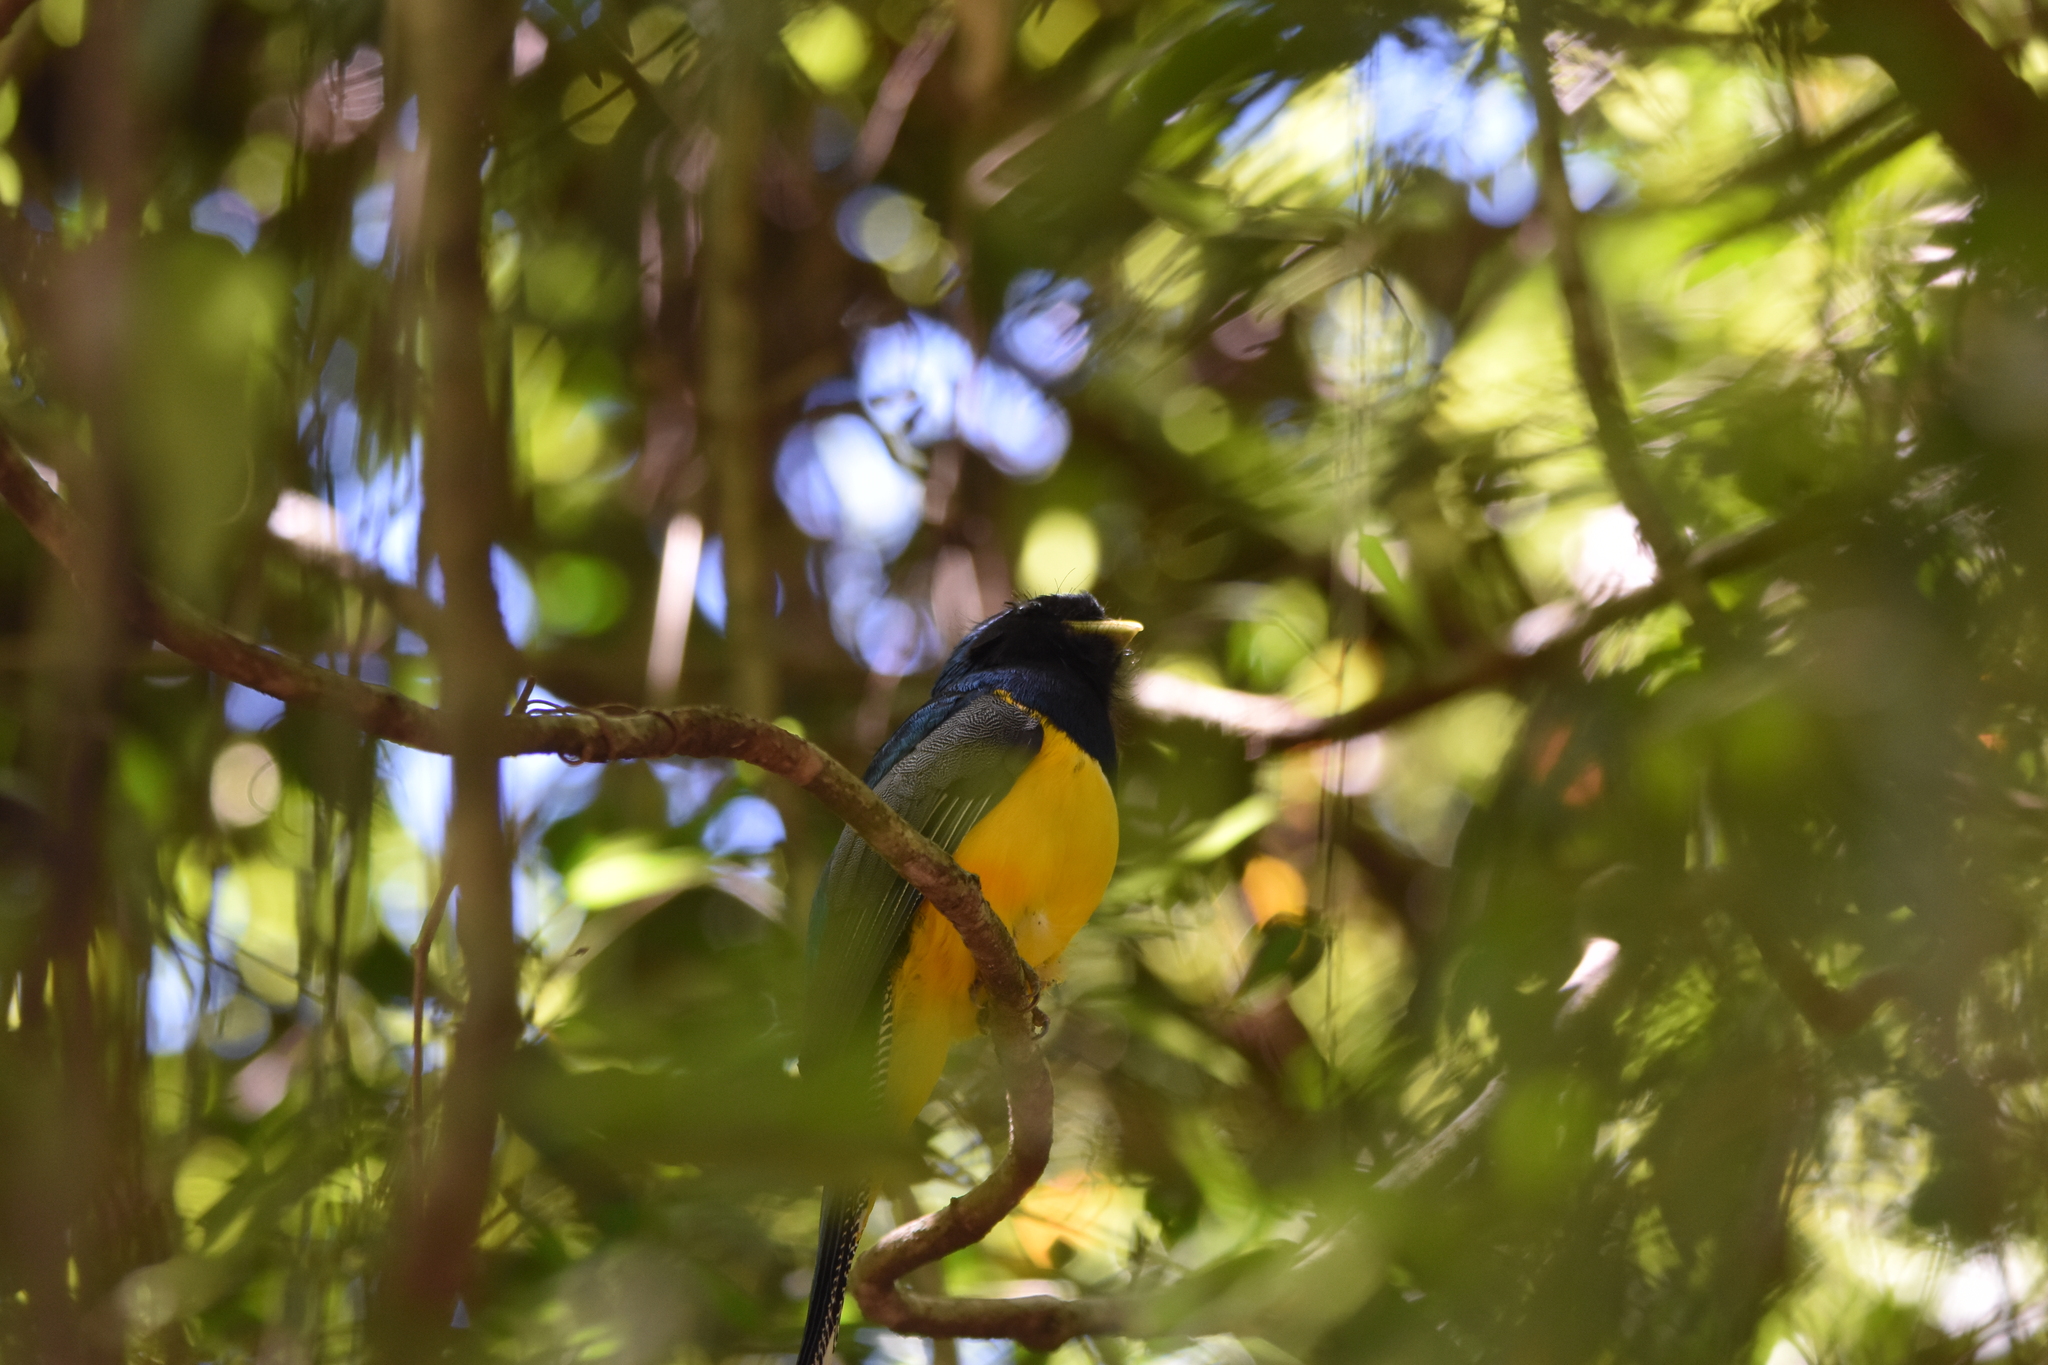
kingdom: Animalia
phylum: Chordata
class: Aves
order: Trogoniformes
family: Trogonidae
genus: Trogon
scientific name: Trogon rufus
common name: Black-throated trogon
